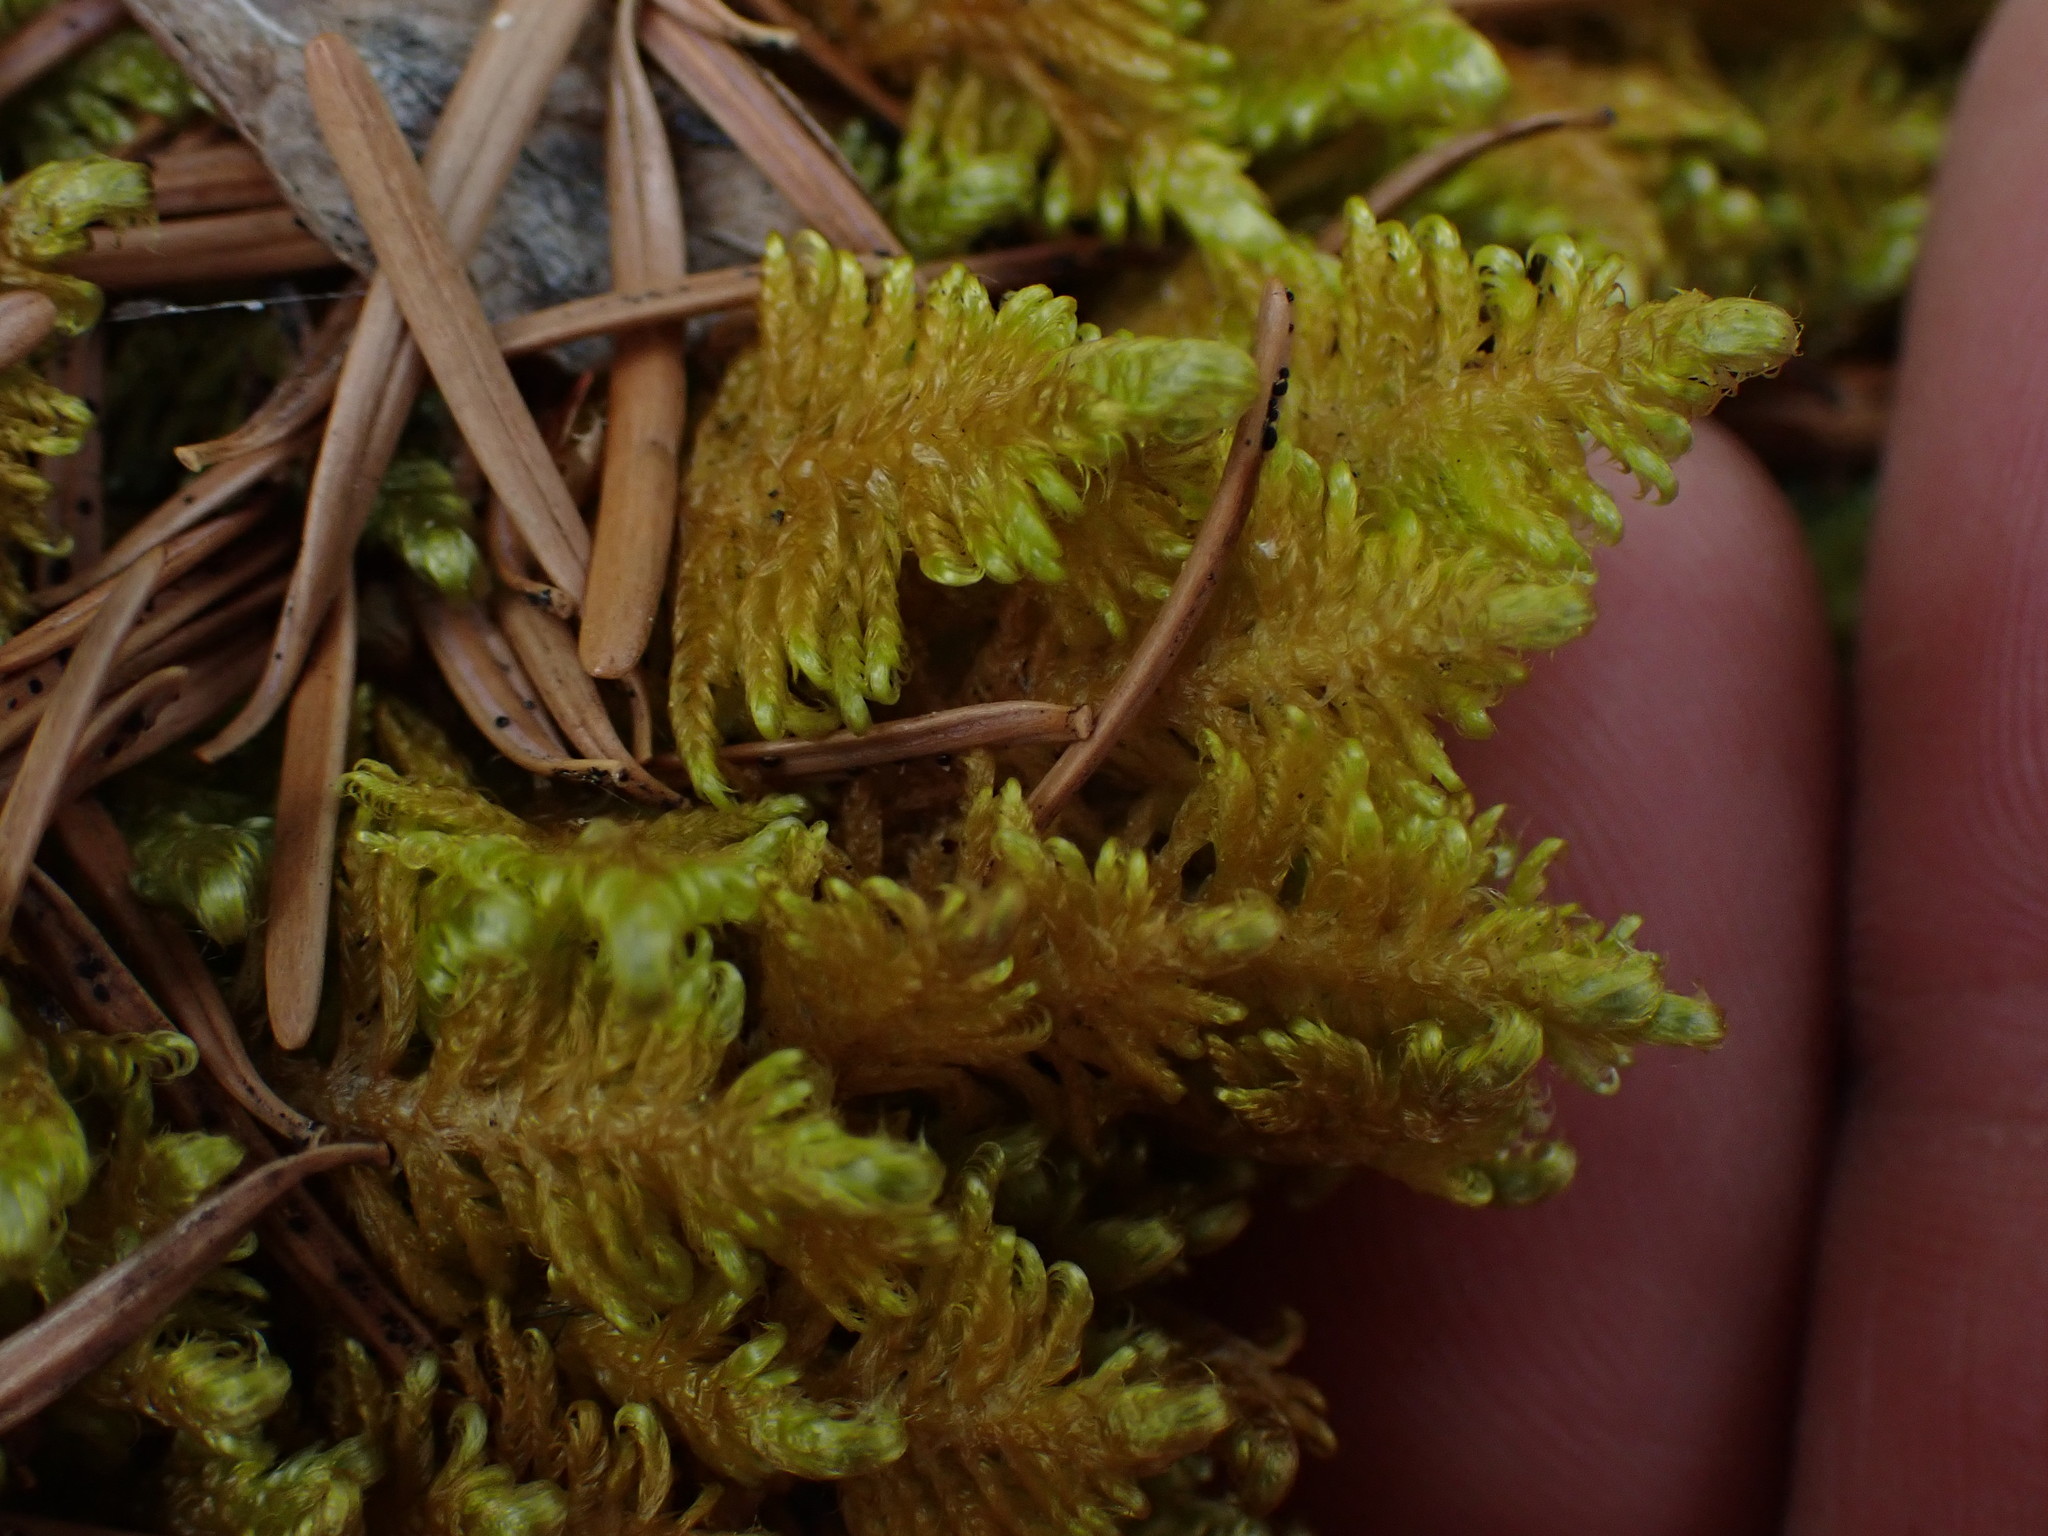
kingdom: Plantae
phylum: Bryophyta
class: Bryopsida
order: Hypnales
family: Pylaisiaceae
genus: Ptilium
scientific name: Ptilium crista-castrensis
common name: Knight's plume moss
